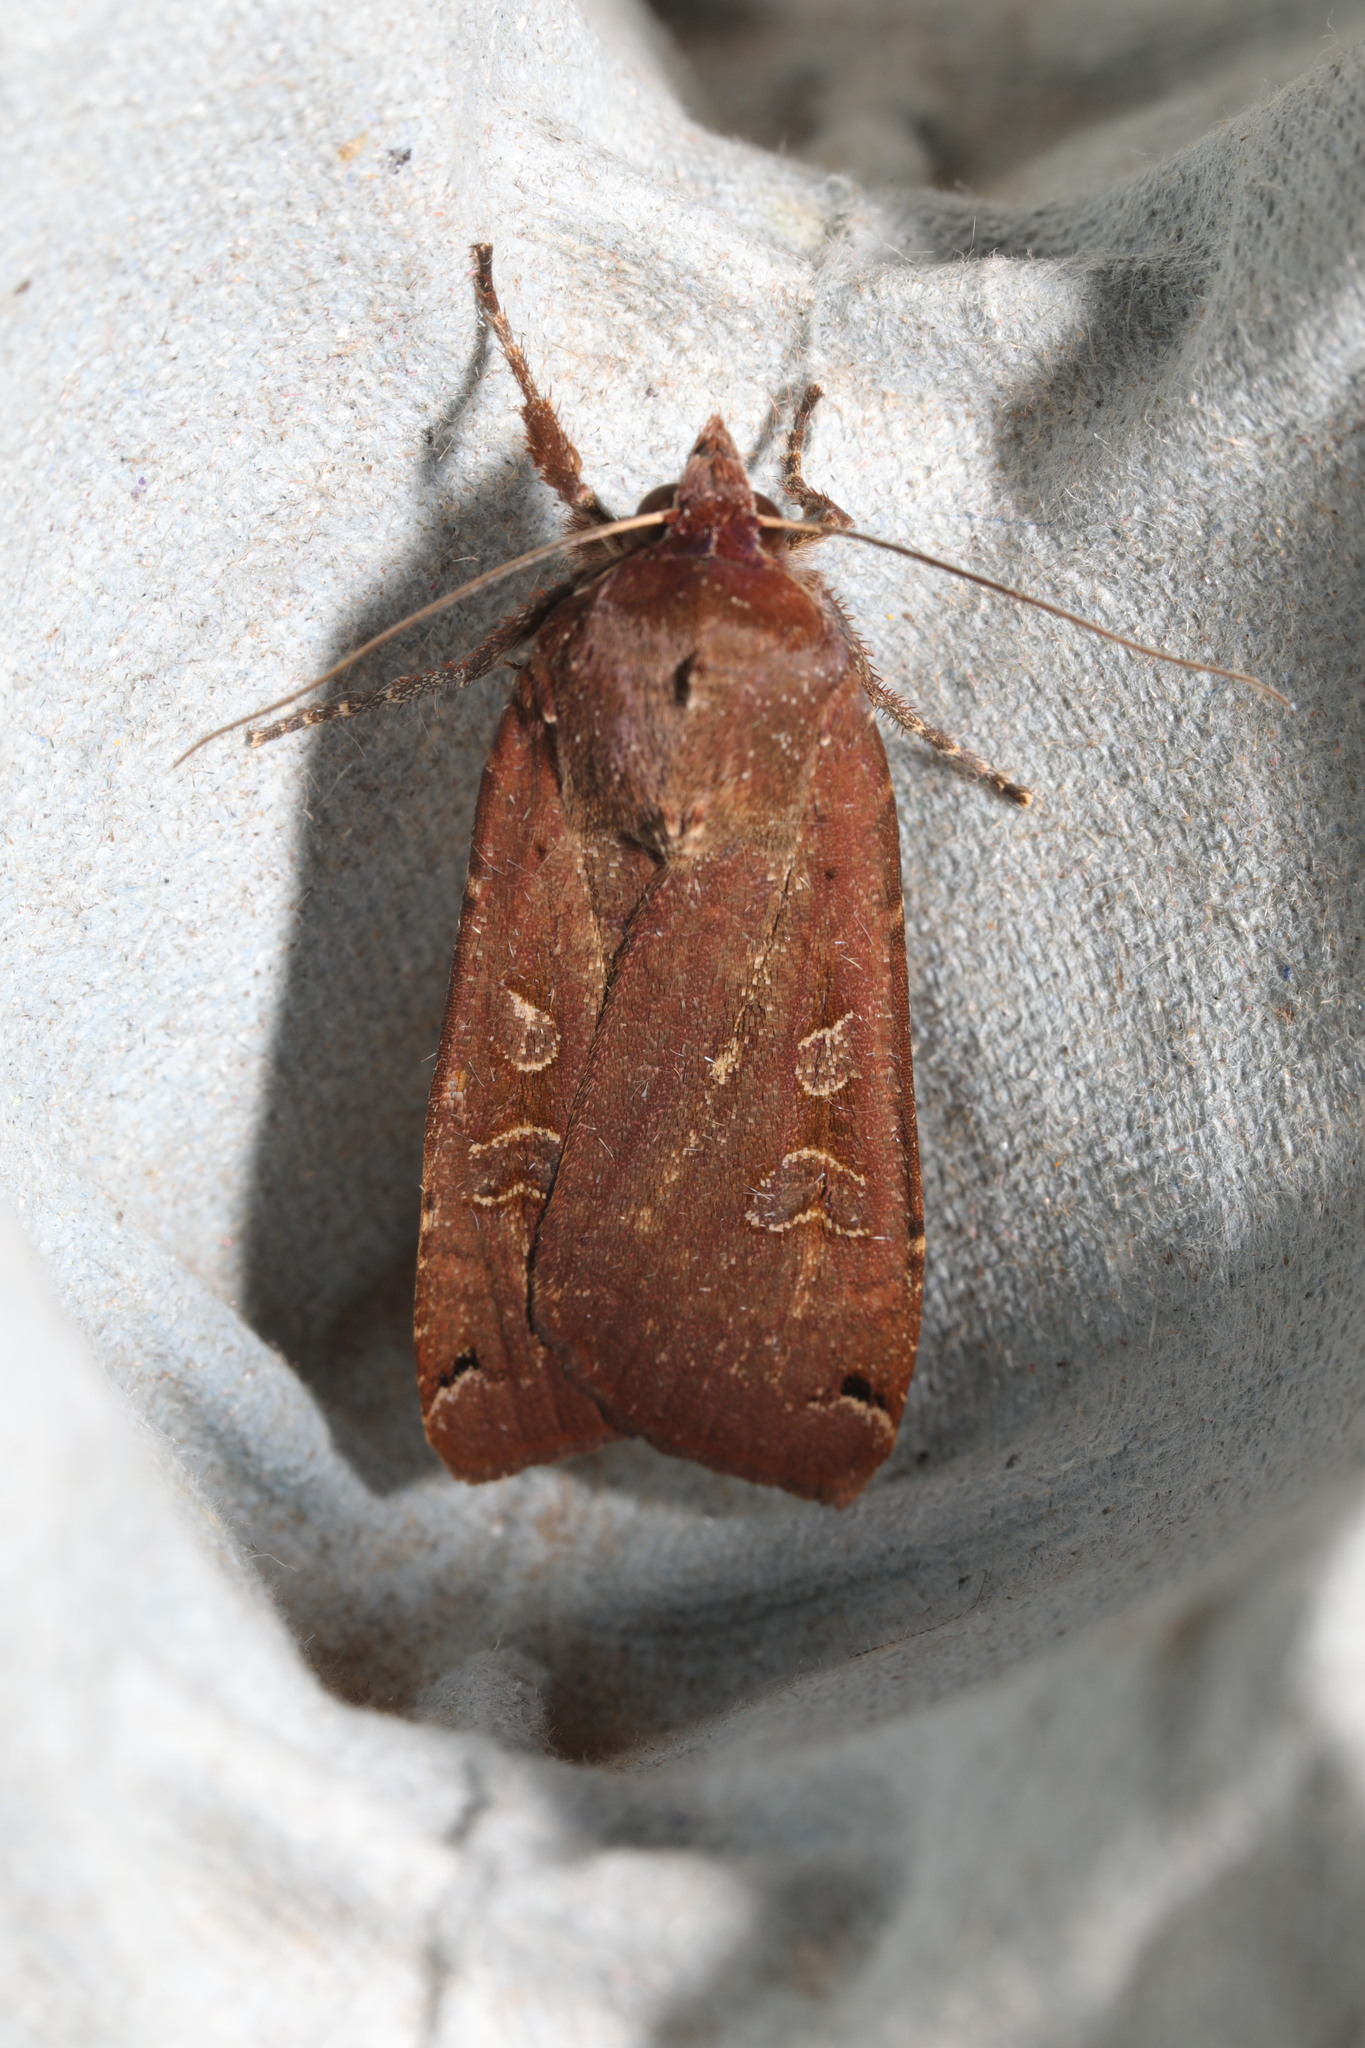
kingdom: Animalia
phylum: Arthropoda
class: Insecta
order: Lepidoptera
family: Noctuidae
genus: Noctua
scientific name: Noctua pronuba
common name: Large yellow underwing
